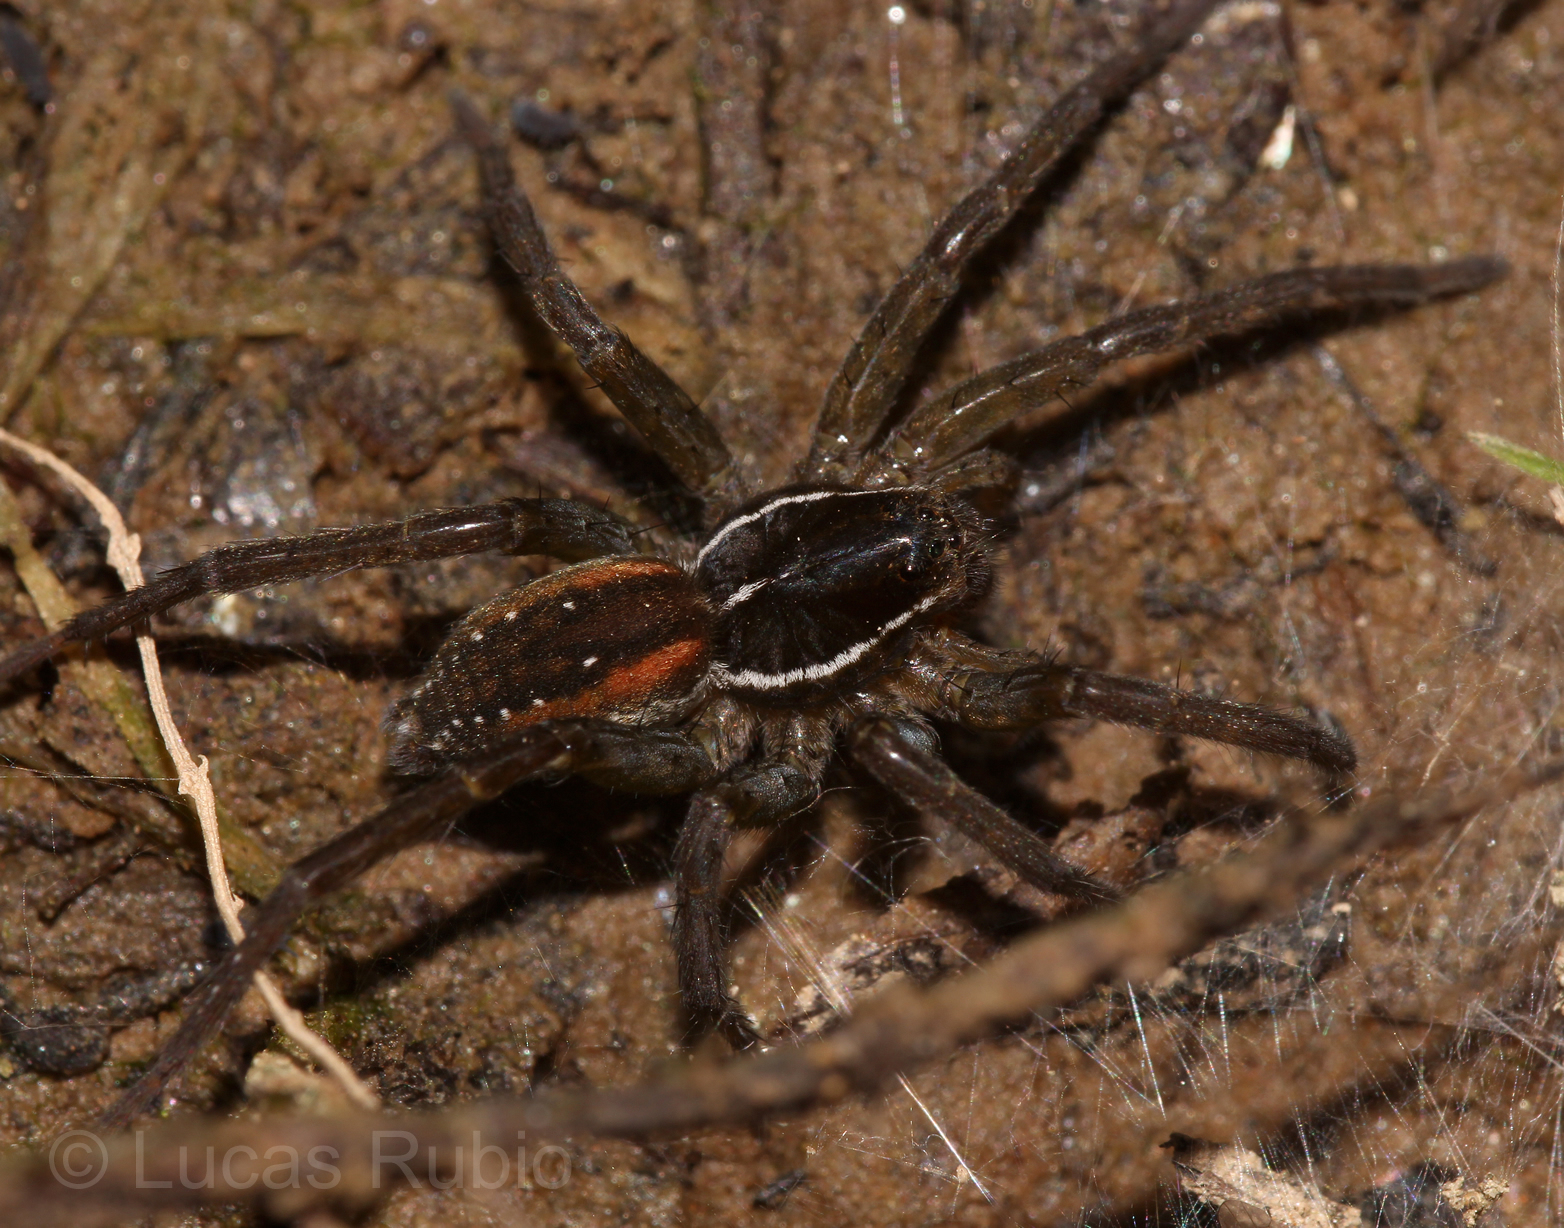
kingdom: Animalia
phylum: Arthropoda
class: Arachnida
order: Araneae
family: Lycosidae
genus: Diapontia
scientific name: Diapontia uruguayensis
